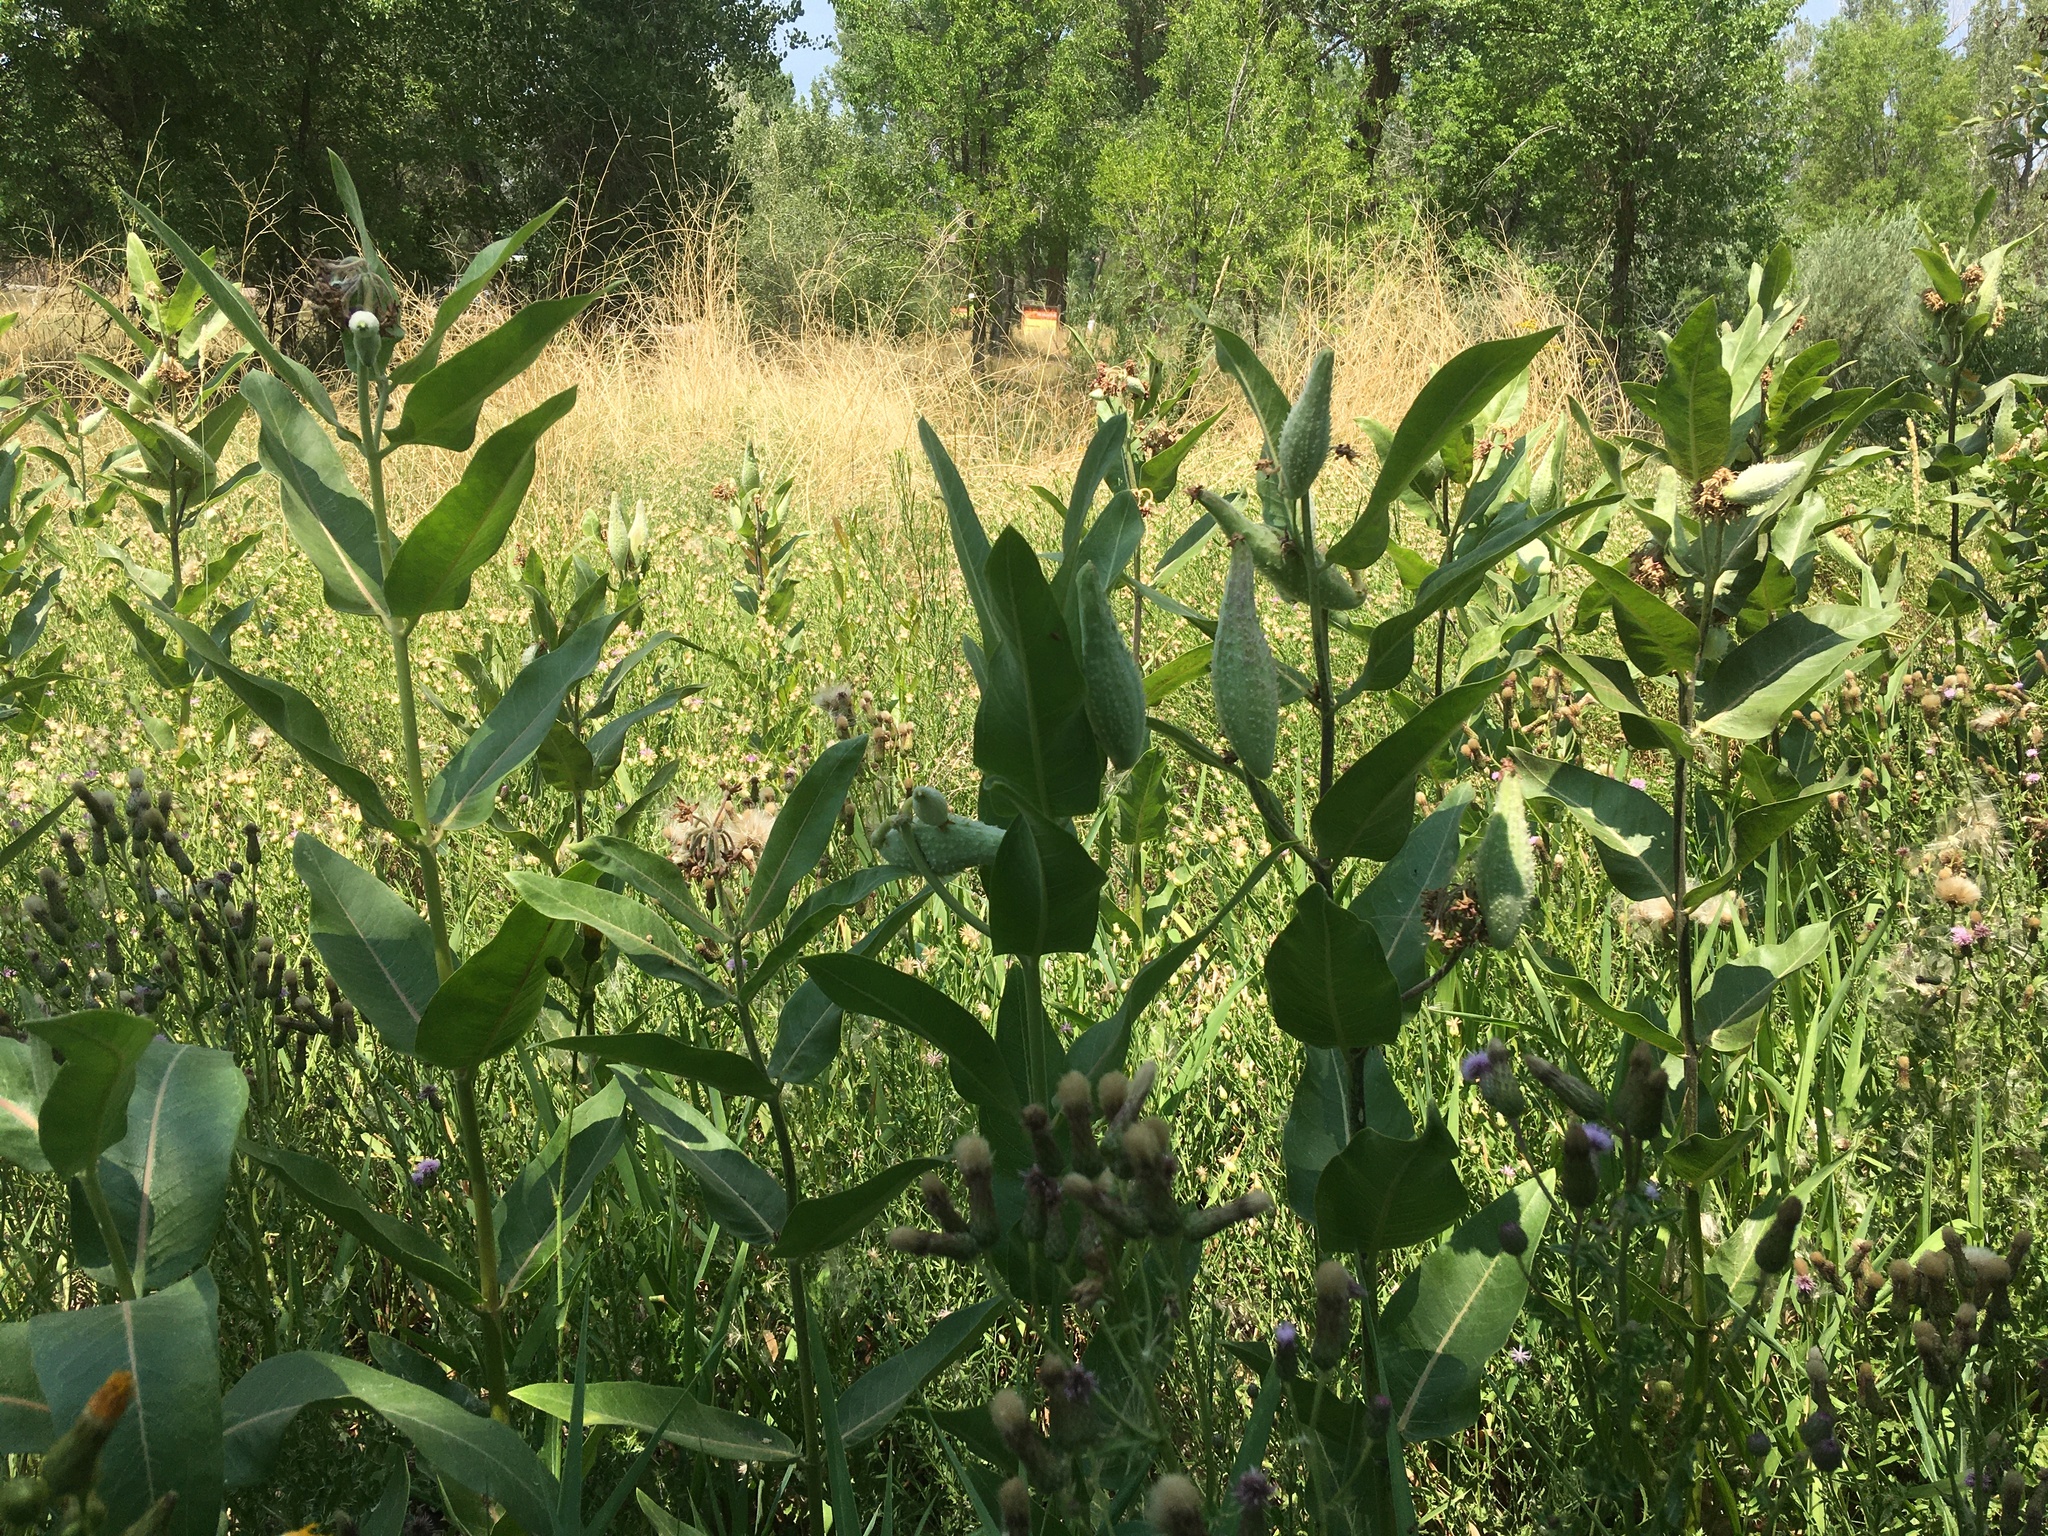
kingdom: Plantae
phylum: Tracheophyta
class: Magnoliopsida
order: Gentianales
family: Apocynaceae
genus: Asclepias
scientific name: Asclepias speciosa
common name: Showy milkweed
